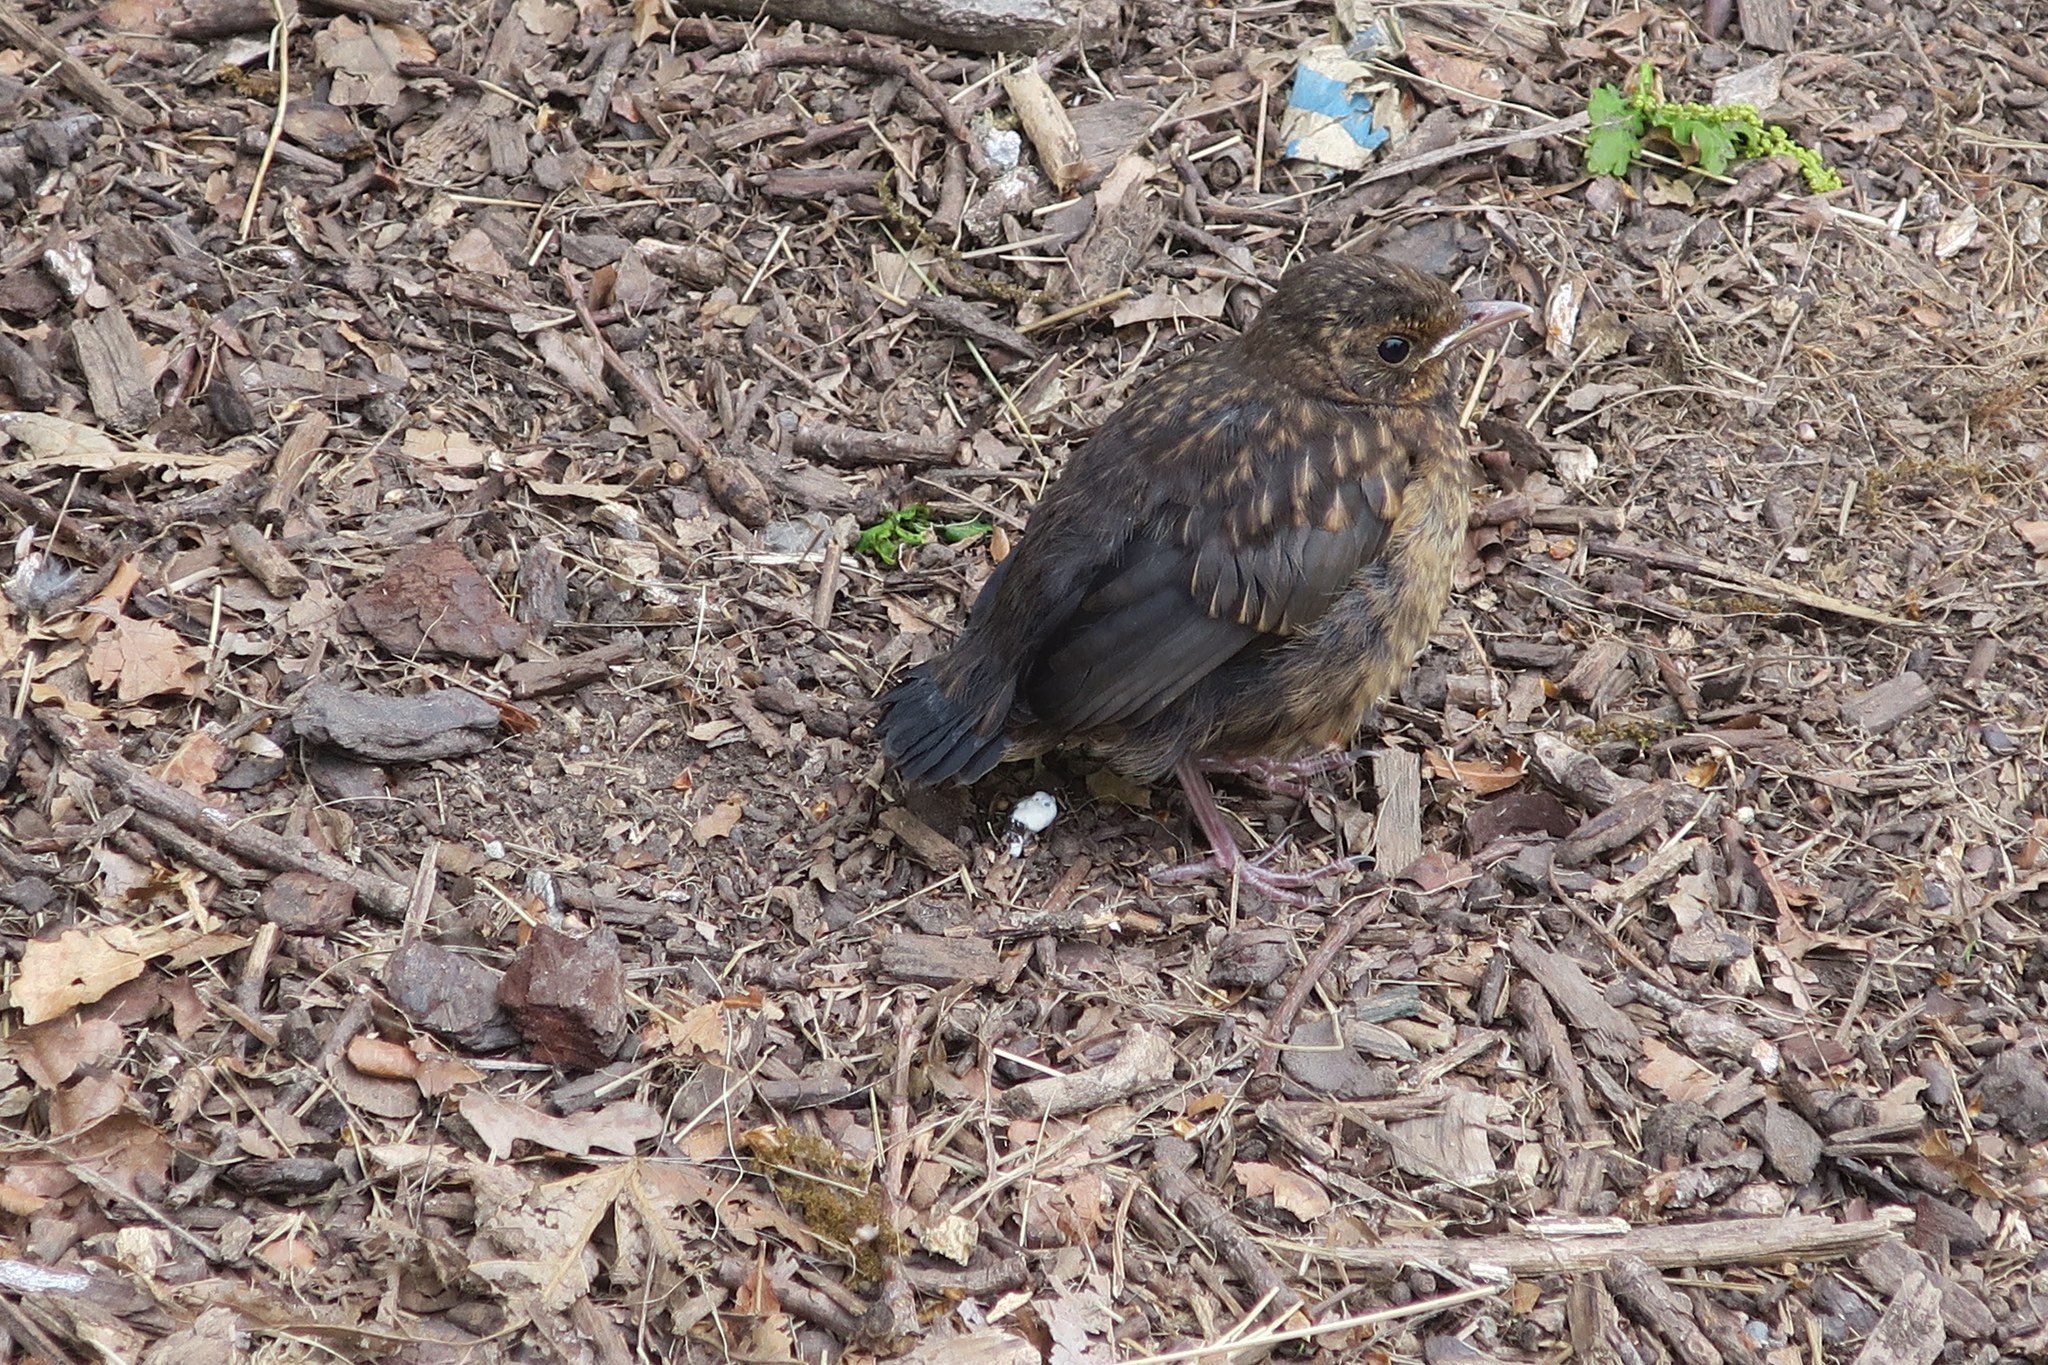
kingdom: Animalia
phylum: Chordata
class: Aves
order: Passeriformes
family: Turdidae
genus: Turdus
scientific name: Turdus merula
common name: Common blackbird
